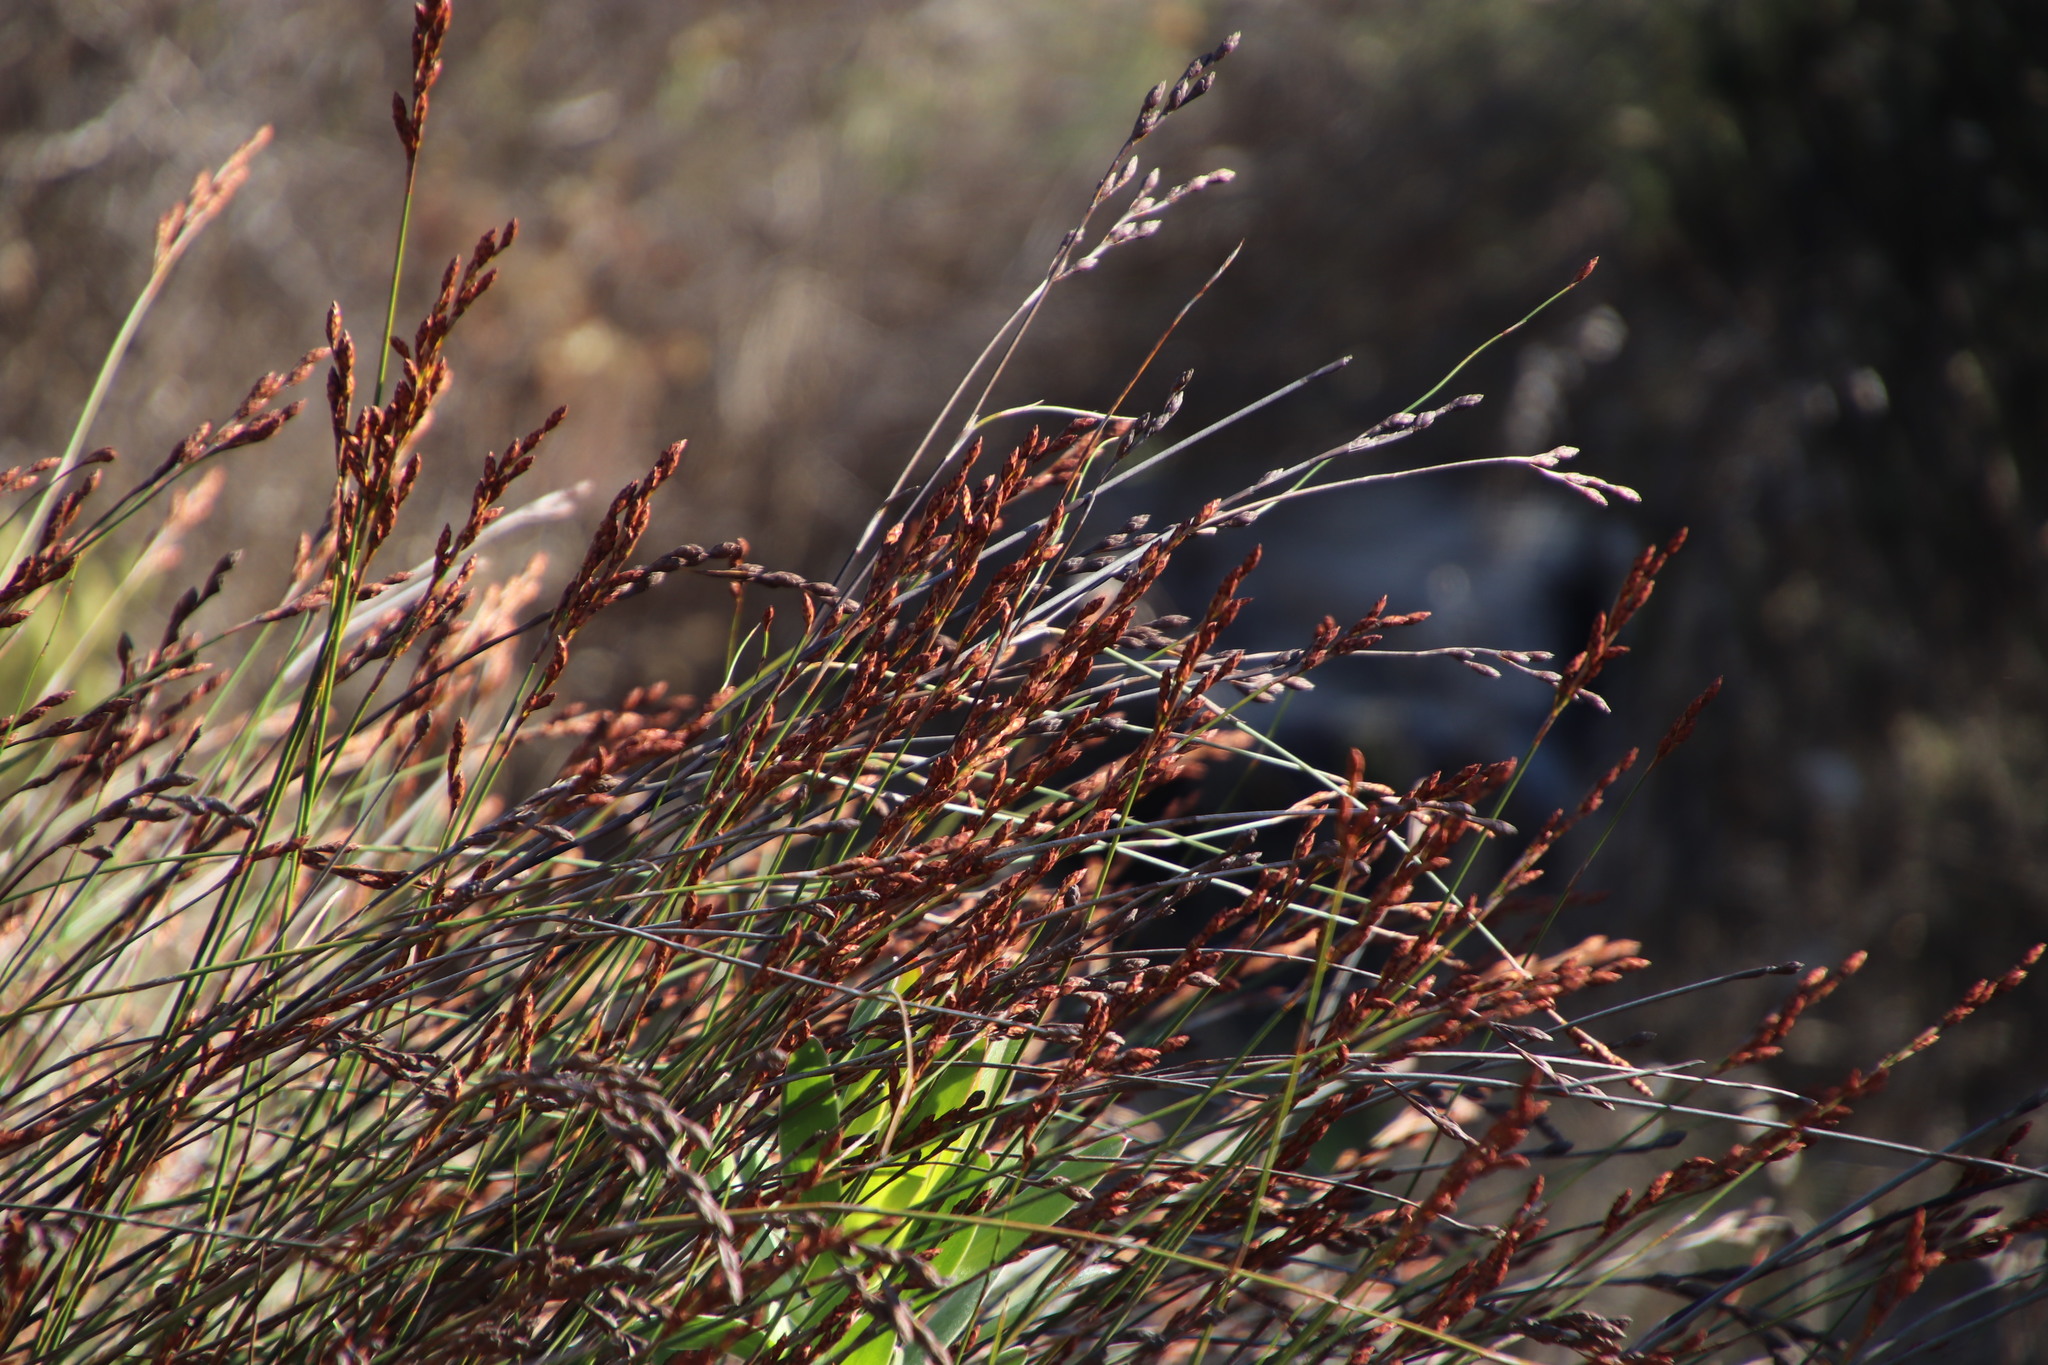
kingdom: Plantae
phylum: Tracheophyta
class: Liliopsida
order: Poales
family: Restionaceae
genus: Restio
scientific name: Restio bifurcus
